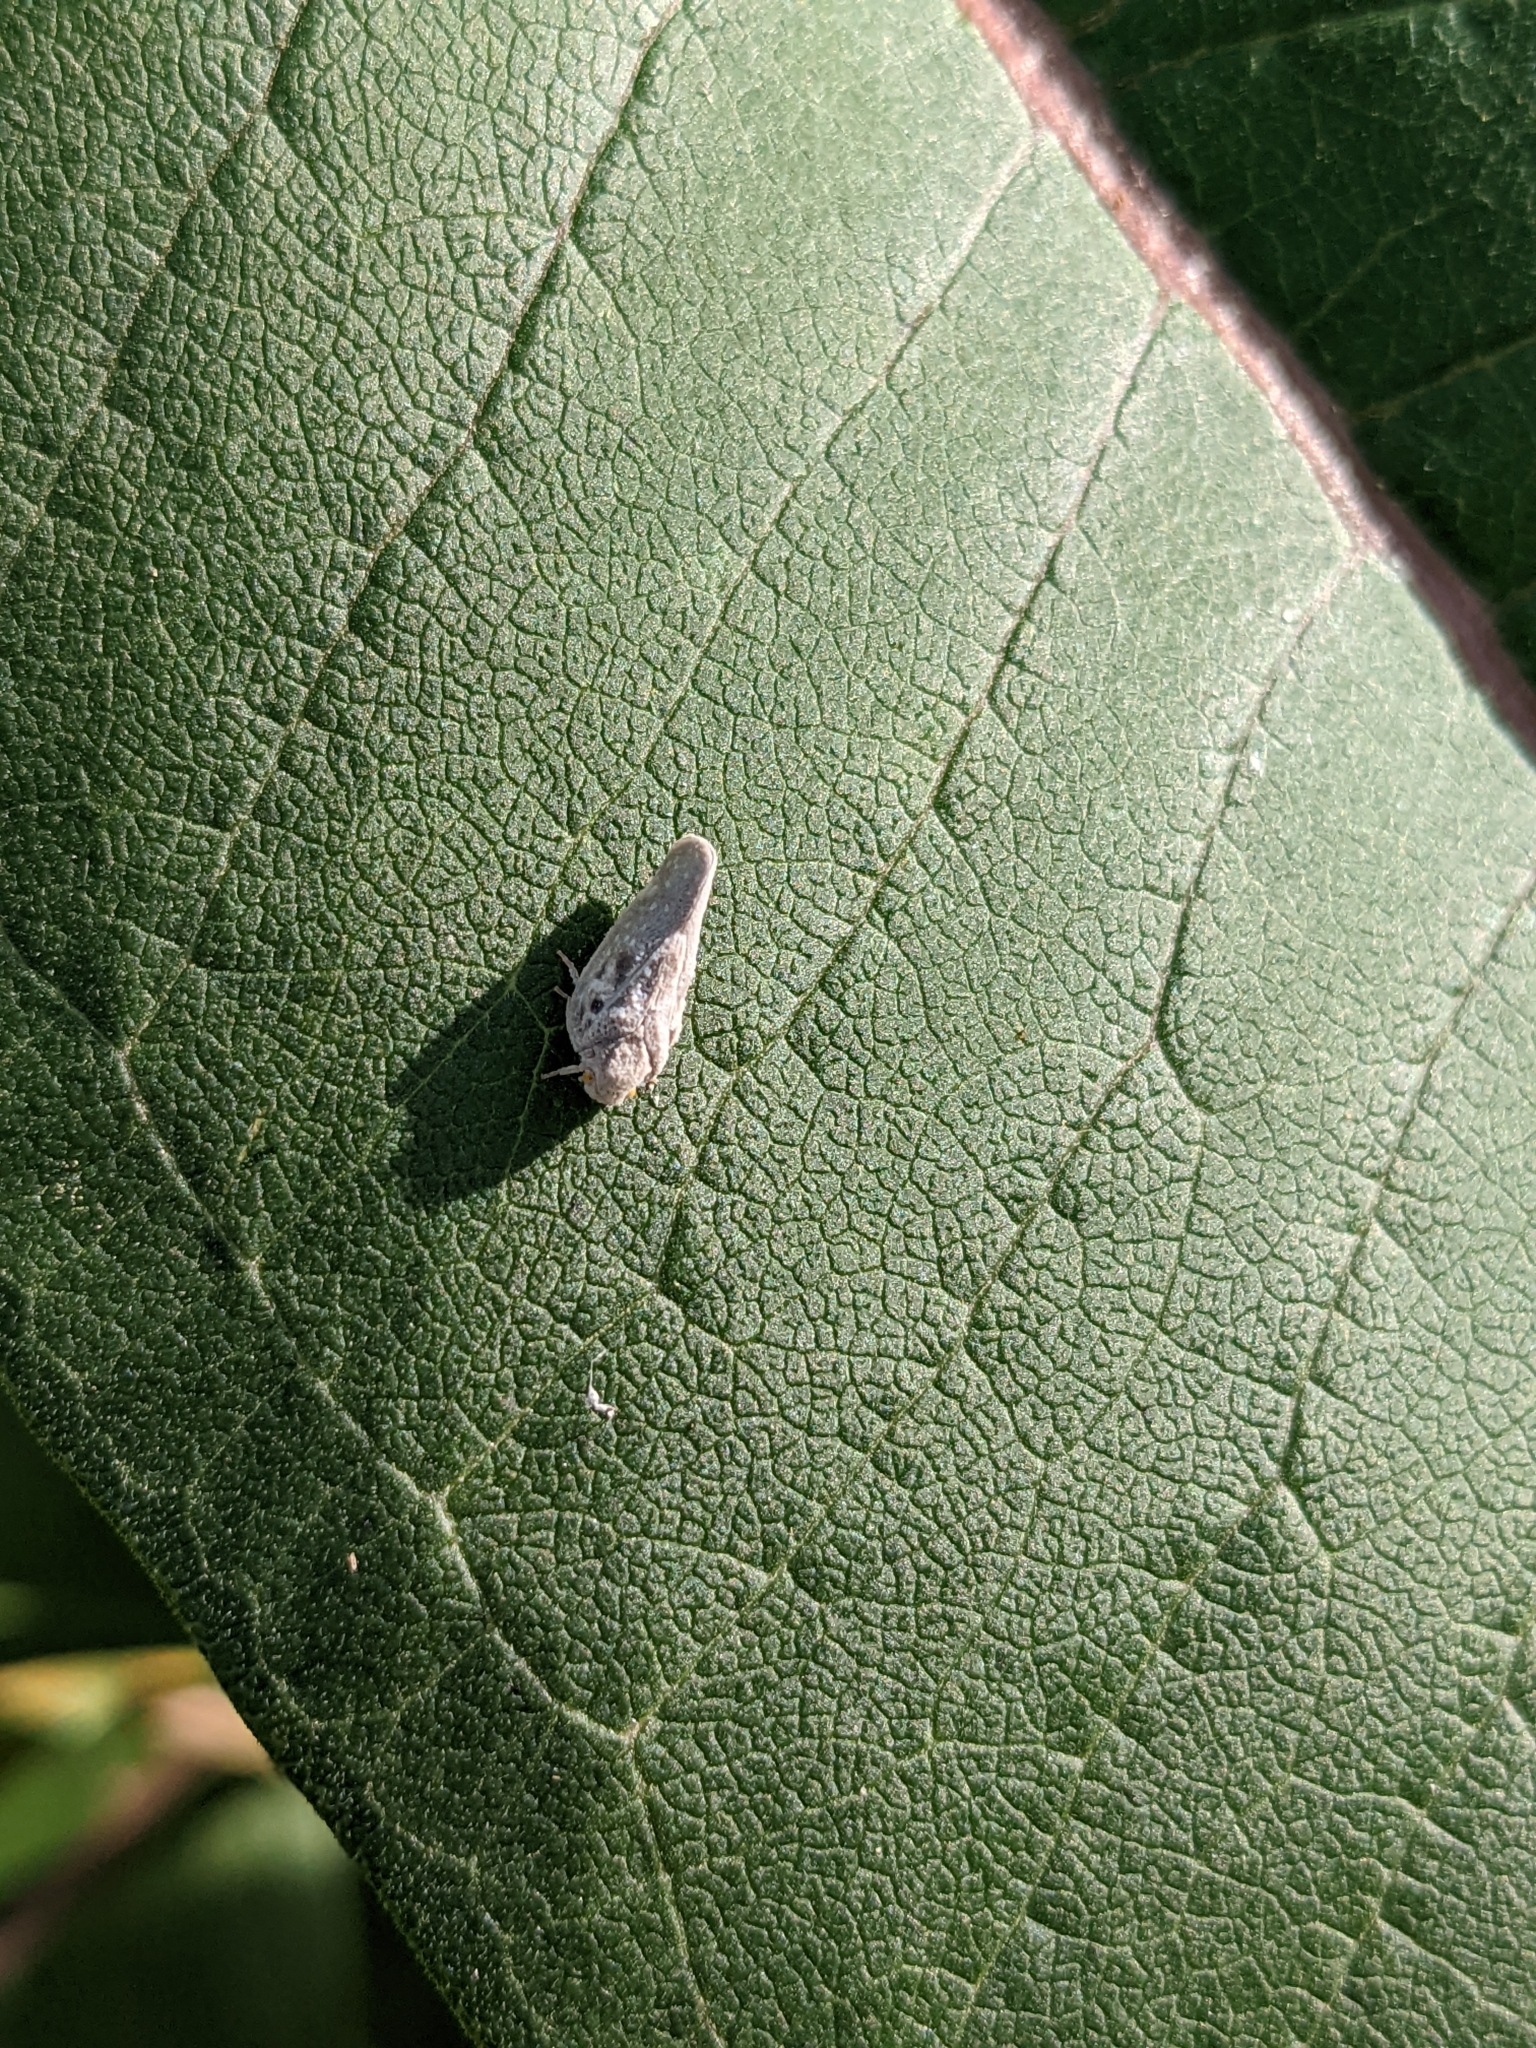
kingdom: Animalia
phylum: Arthropoda
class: Insecta
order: Hemiptera
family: Flatidae
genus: Metcalfa
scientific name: Metcalfa pruinosa
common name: Citrus flatid planthopper
